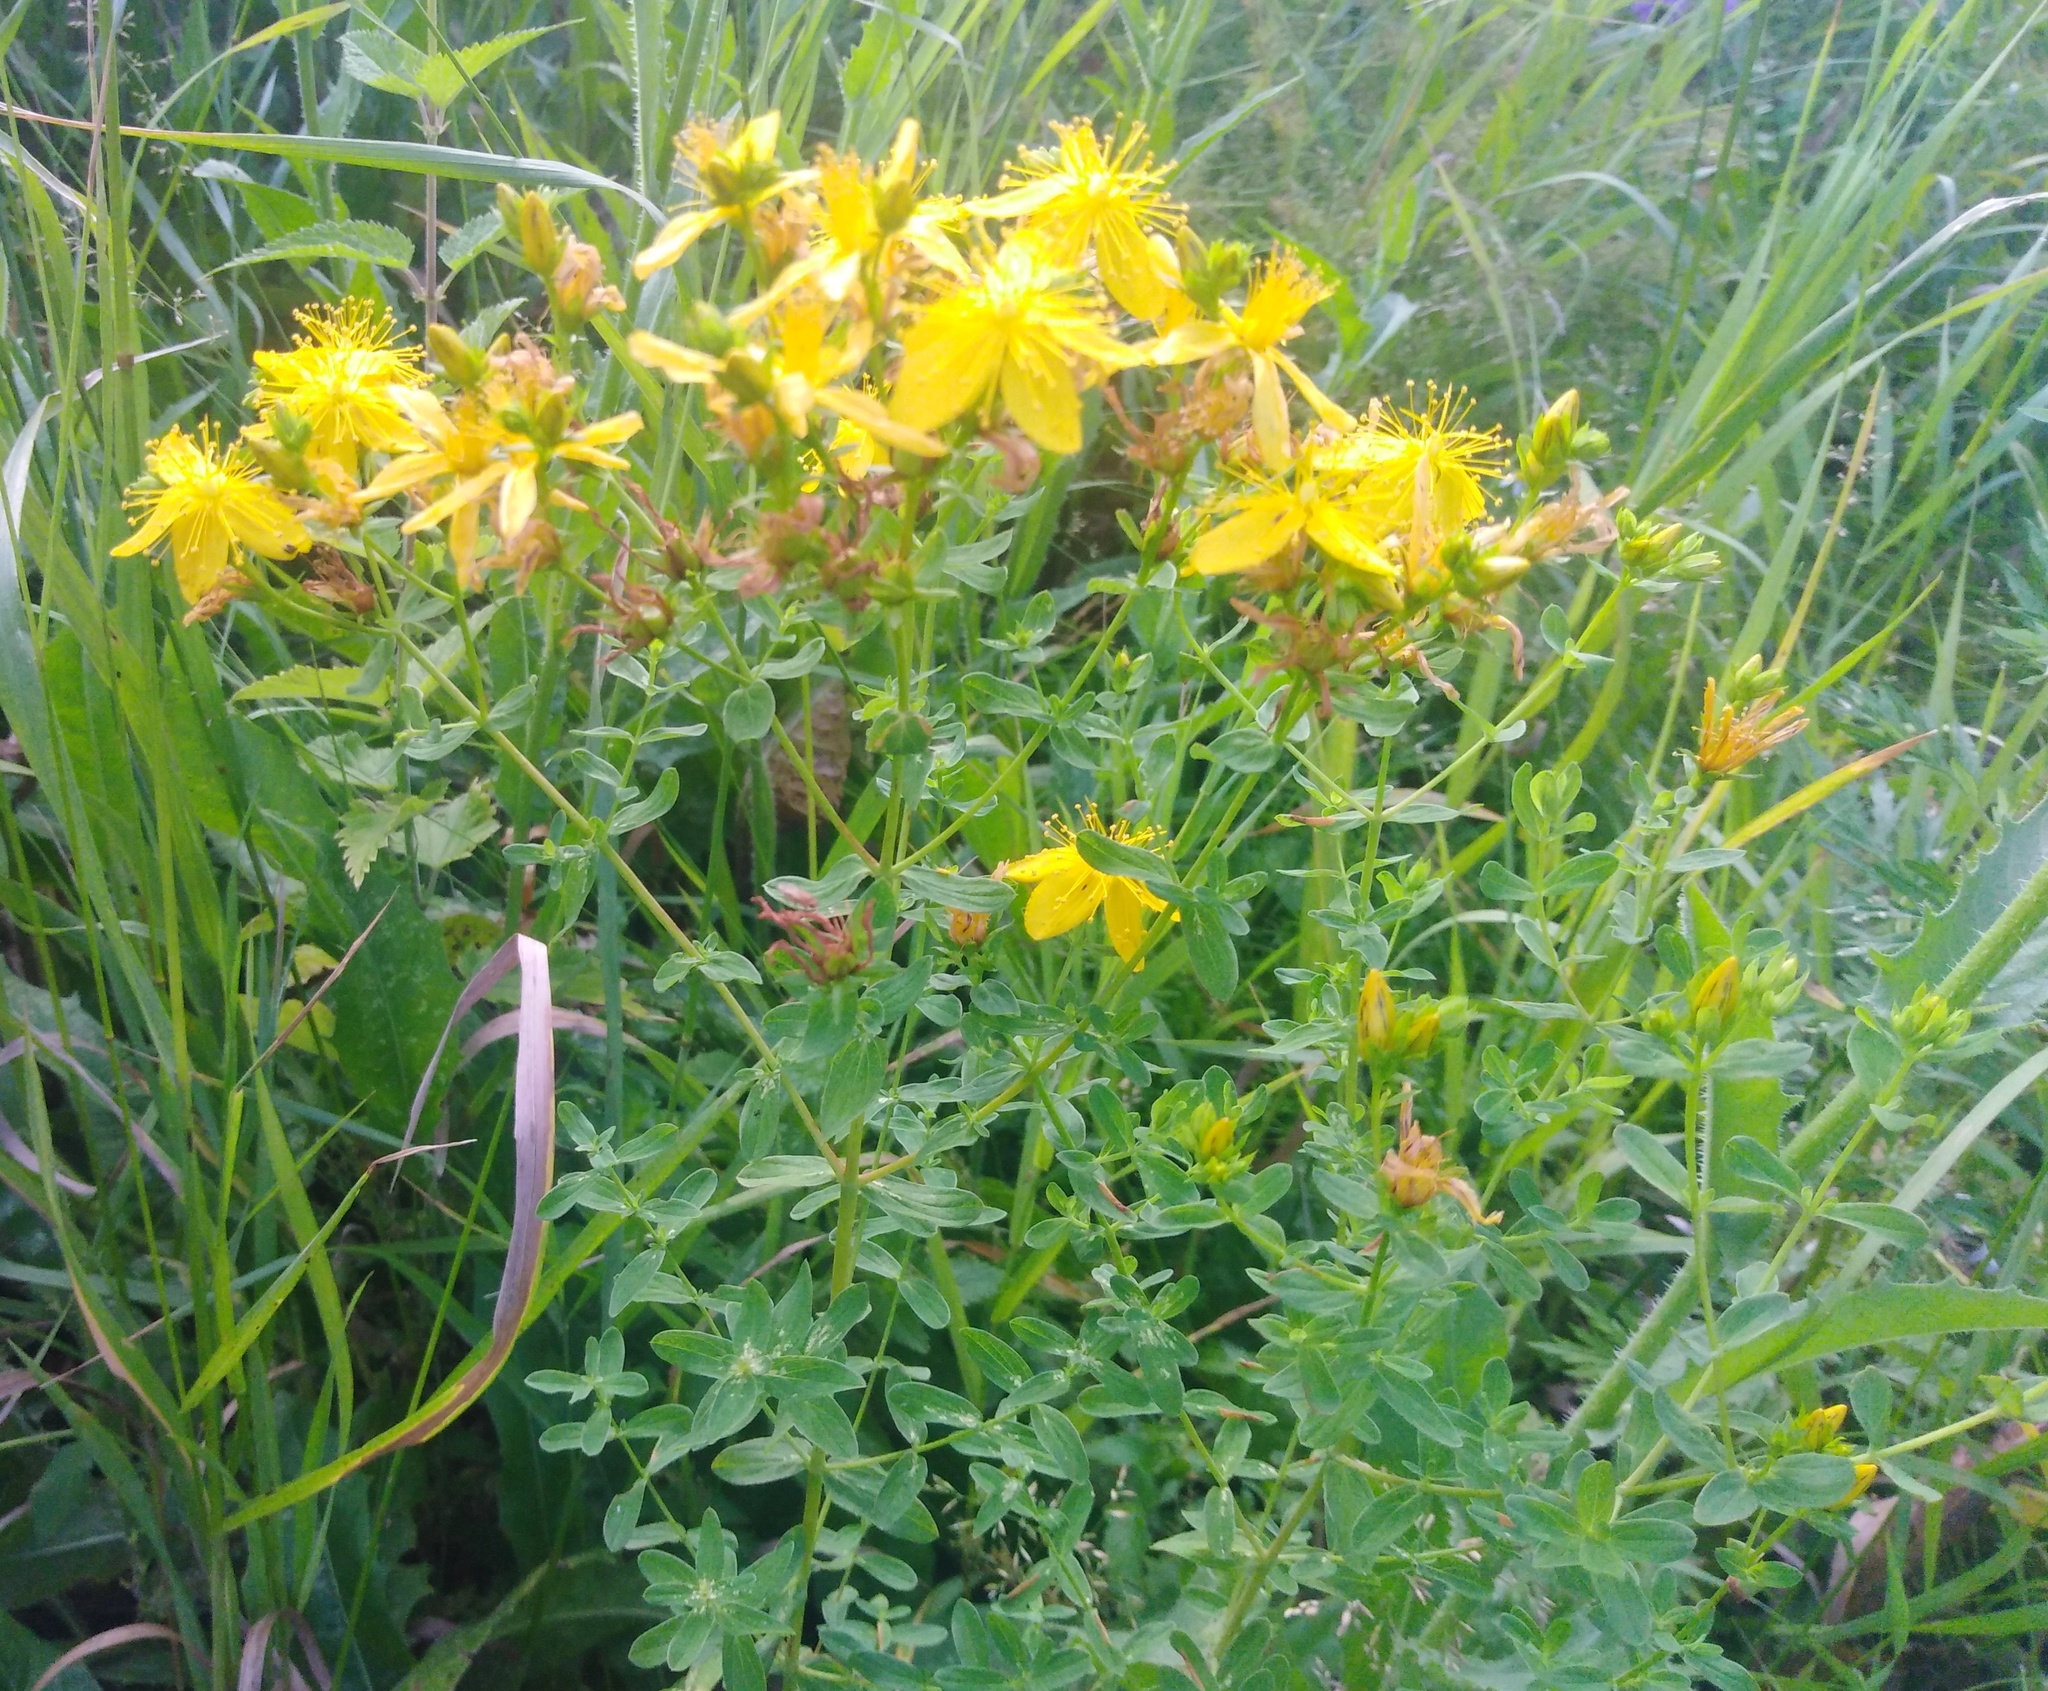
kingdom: Plantae
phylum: Tracheophyta
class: Magnoliopsida
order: Malpighiales
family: Hypericaceae
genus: Hypericum
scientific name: Hypericum perforatum
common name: Common st. johnswort
